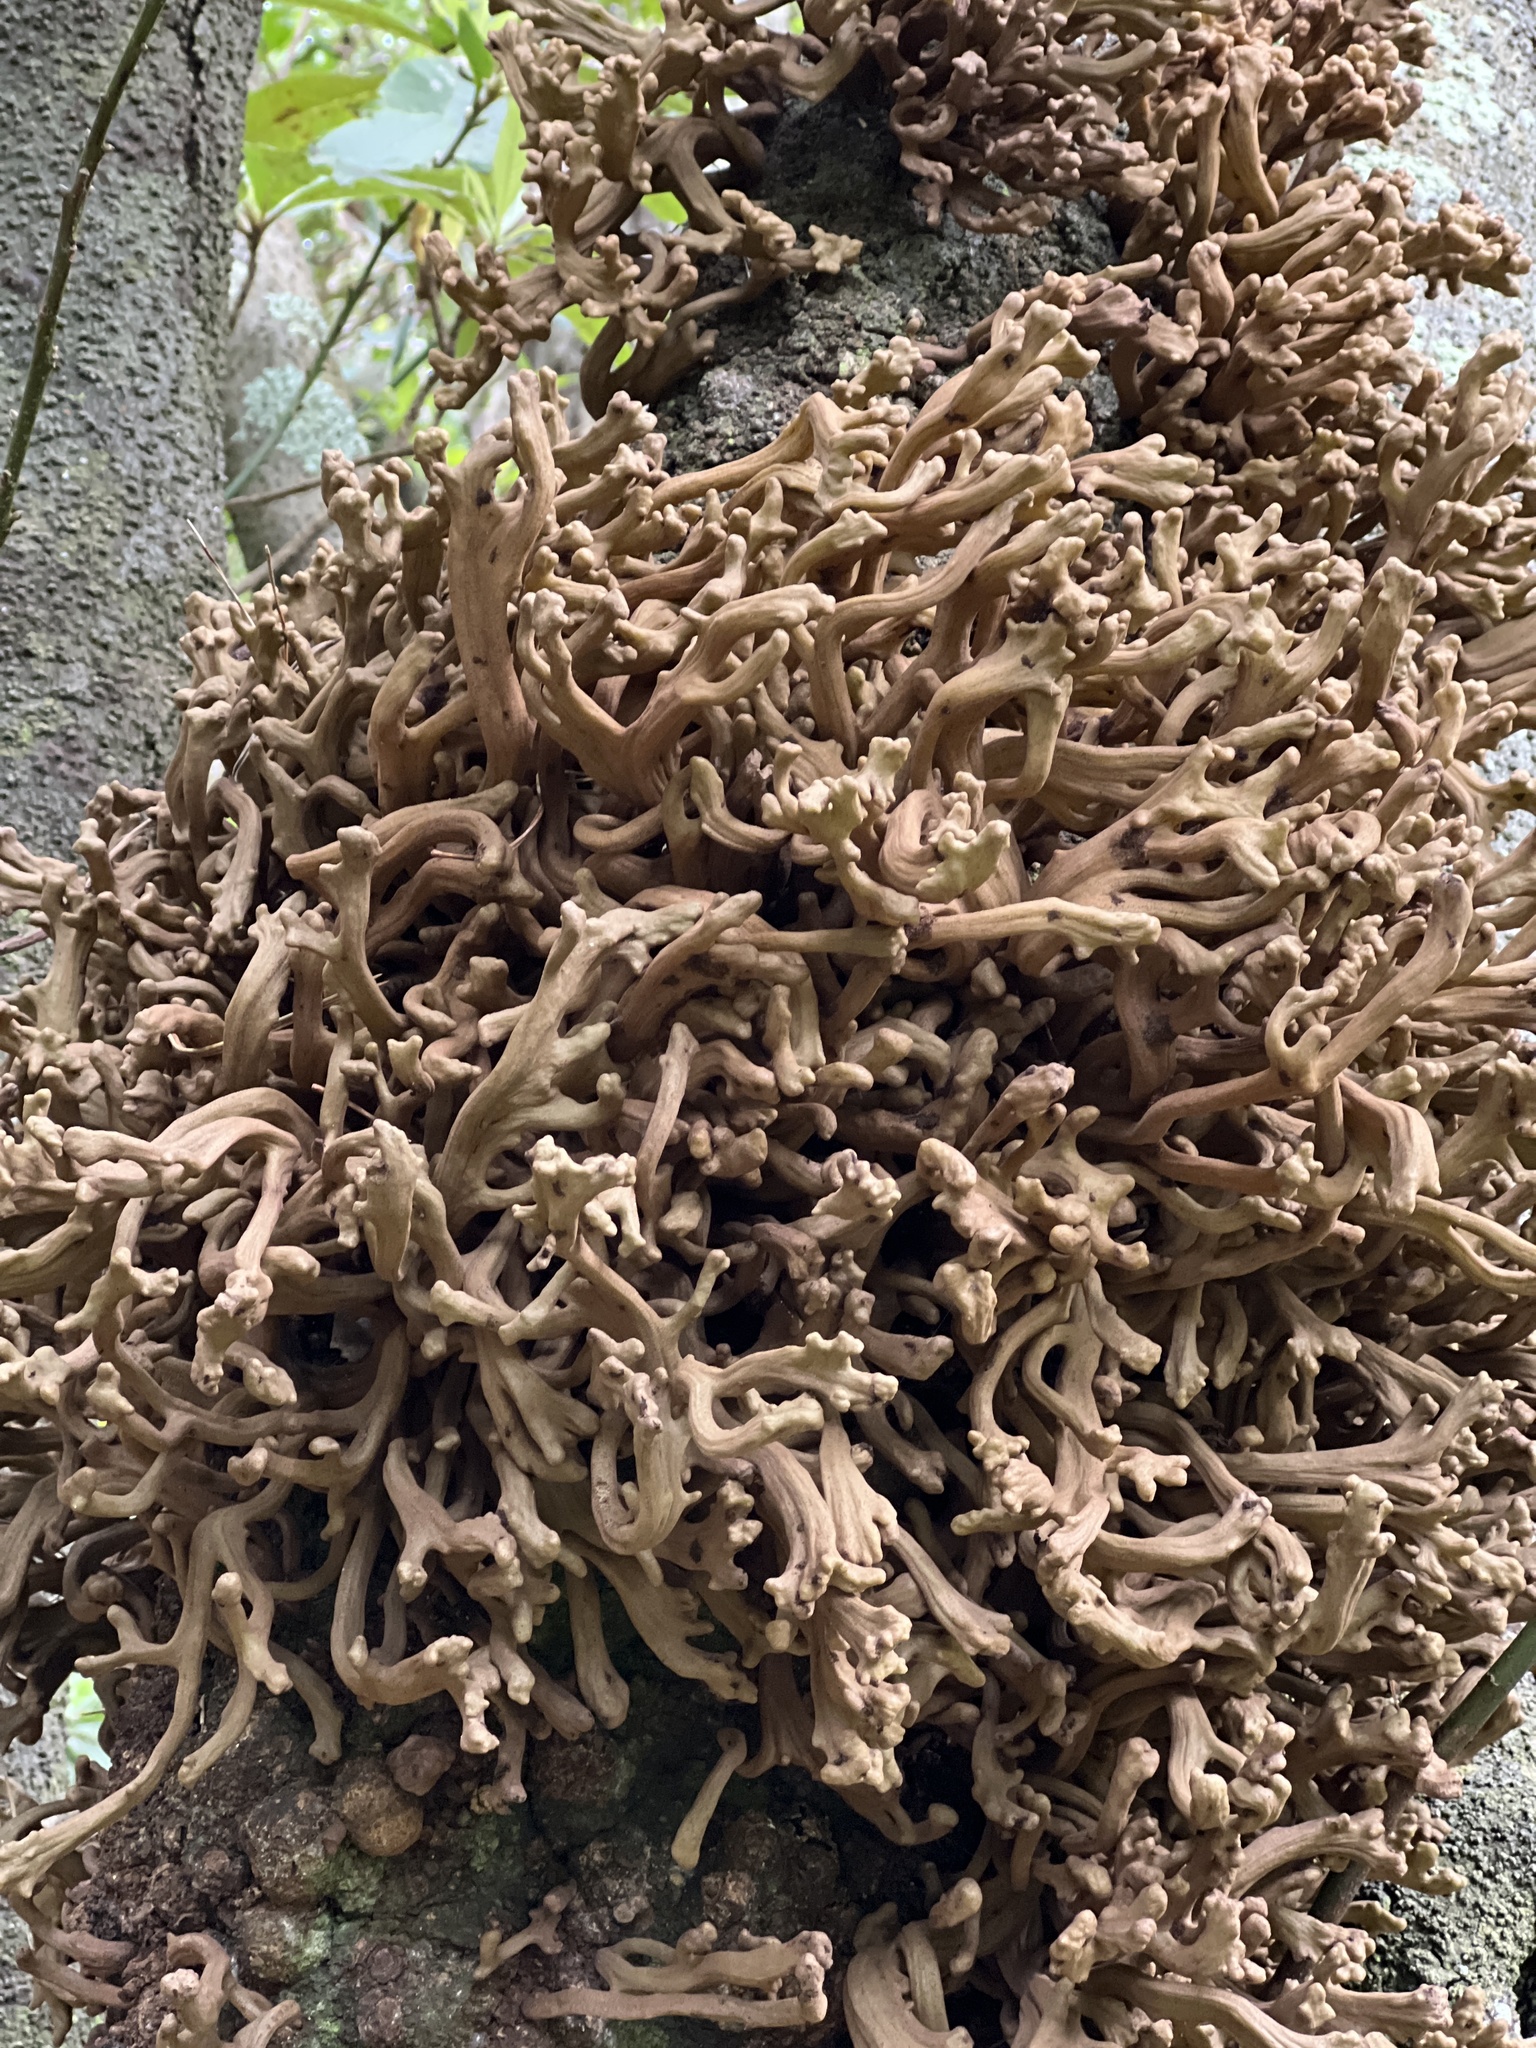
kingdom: Fungi
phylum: Basidiomycota
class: Exobasidiomycetes
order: Exobasidiales
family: Laurobasidiaceae
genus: Laurobasidium
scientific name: Laurobasidium lauri
